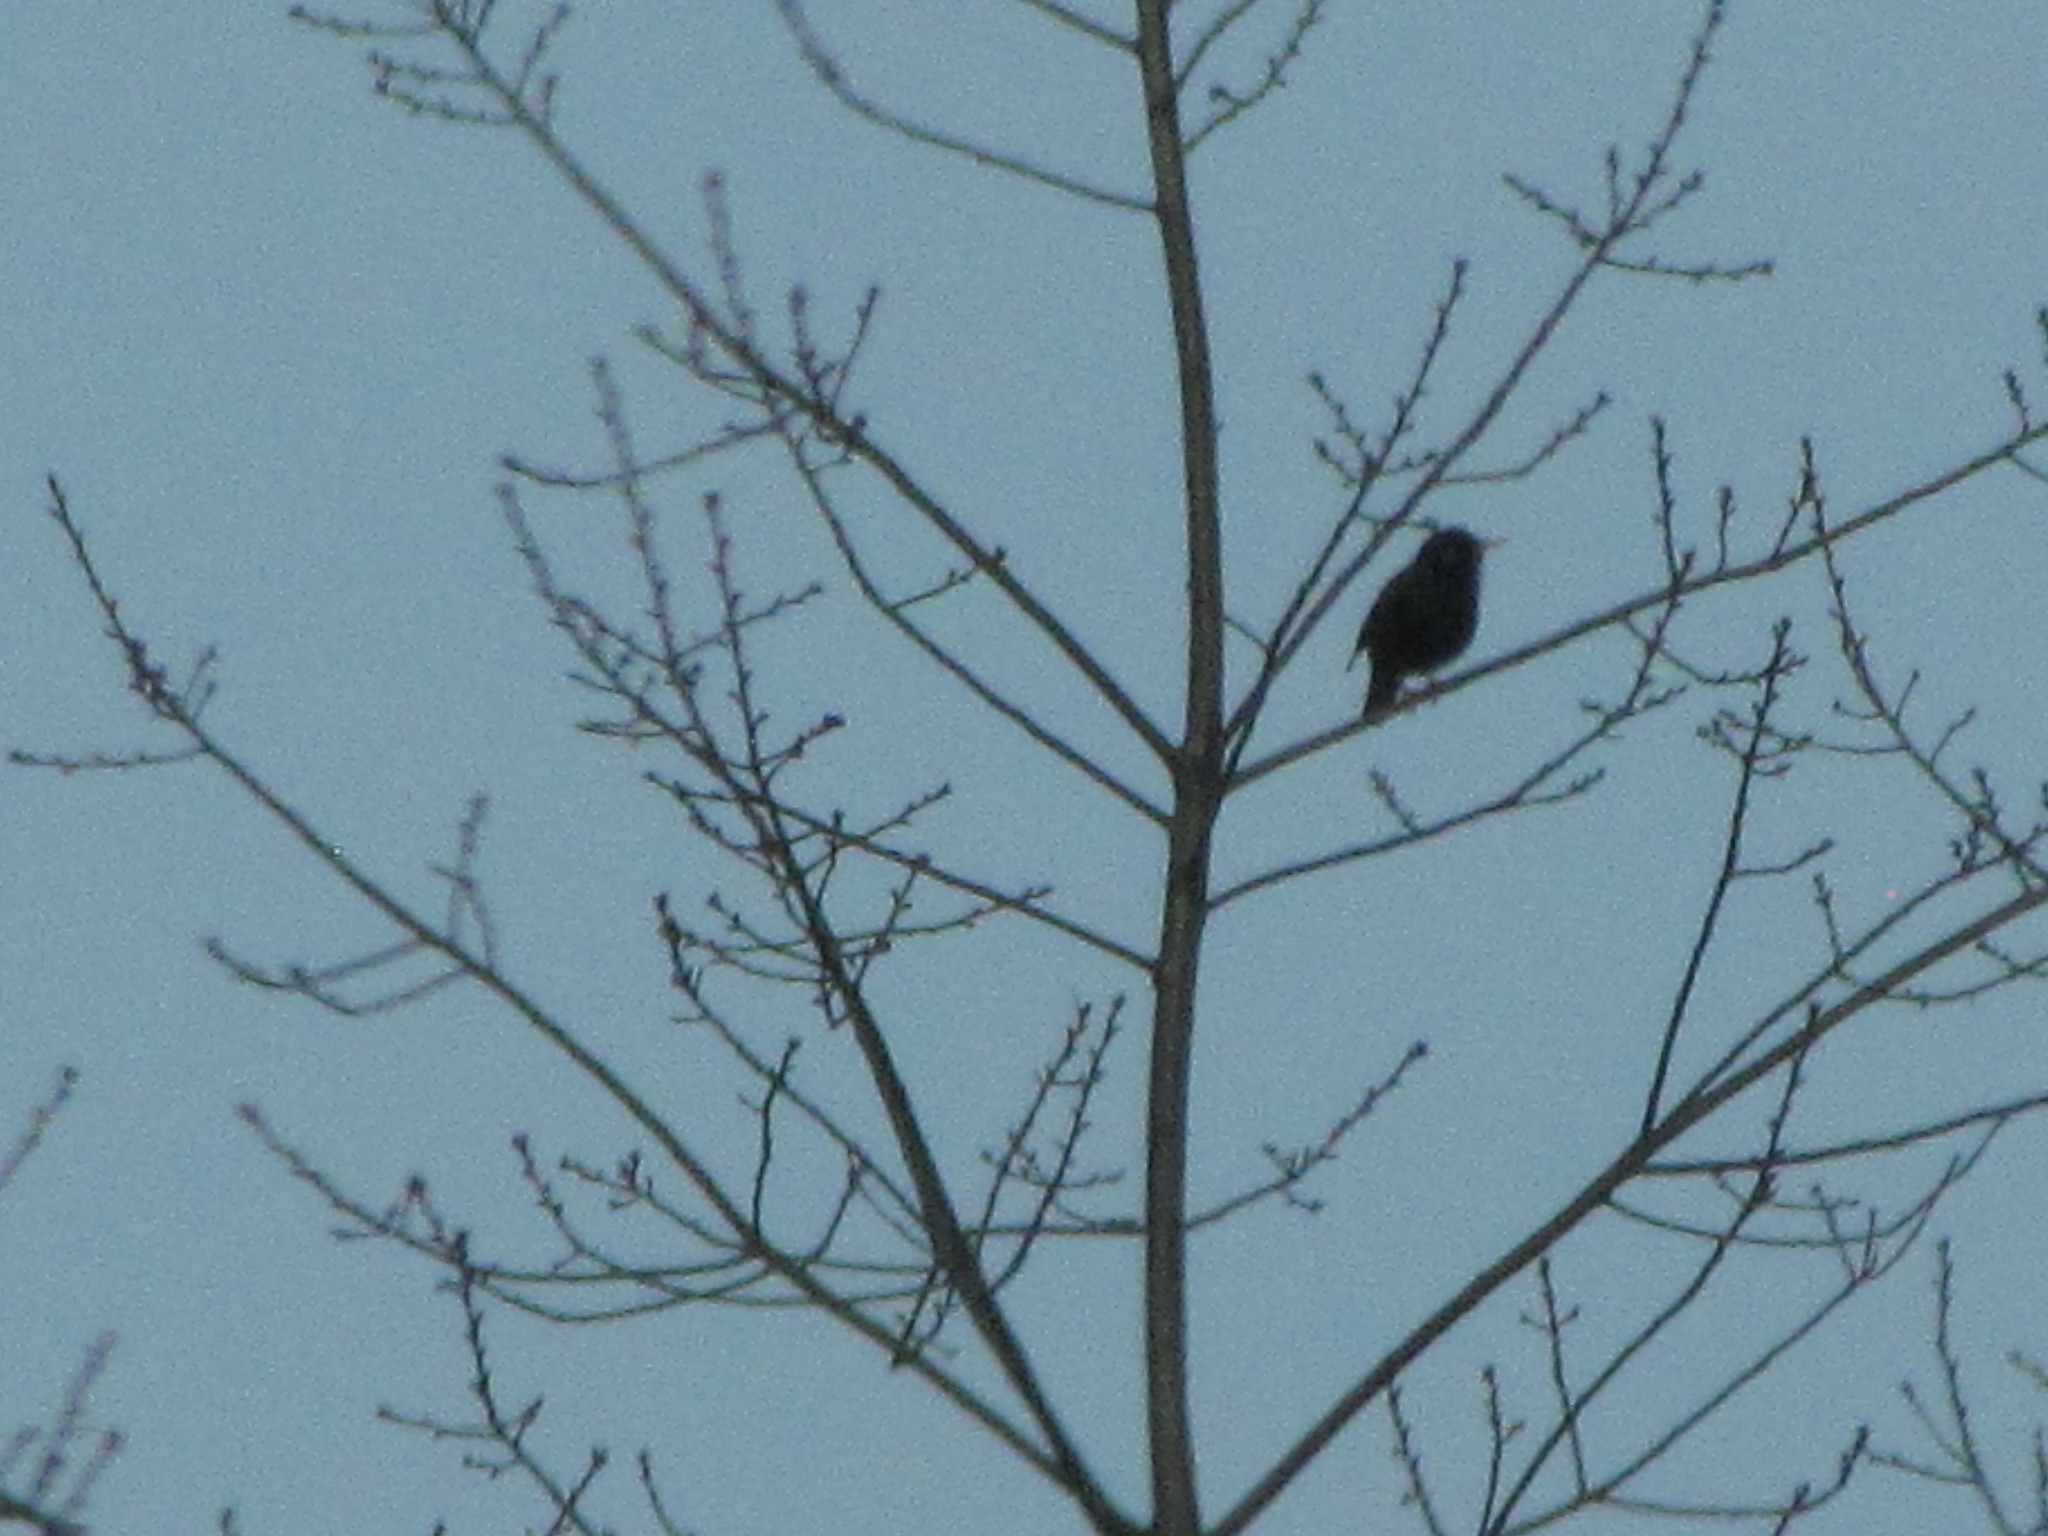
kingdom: Animalia
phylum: Chordata
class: Aves
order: Passeriformes
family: Sturnidae
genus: Sturnus
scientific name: Sturnus vulgaris
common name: Common starling
